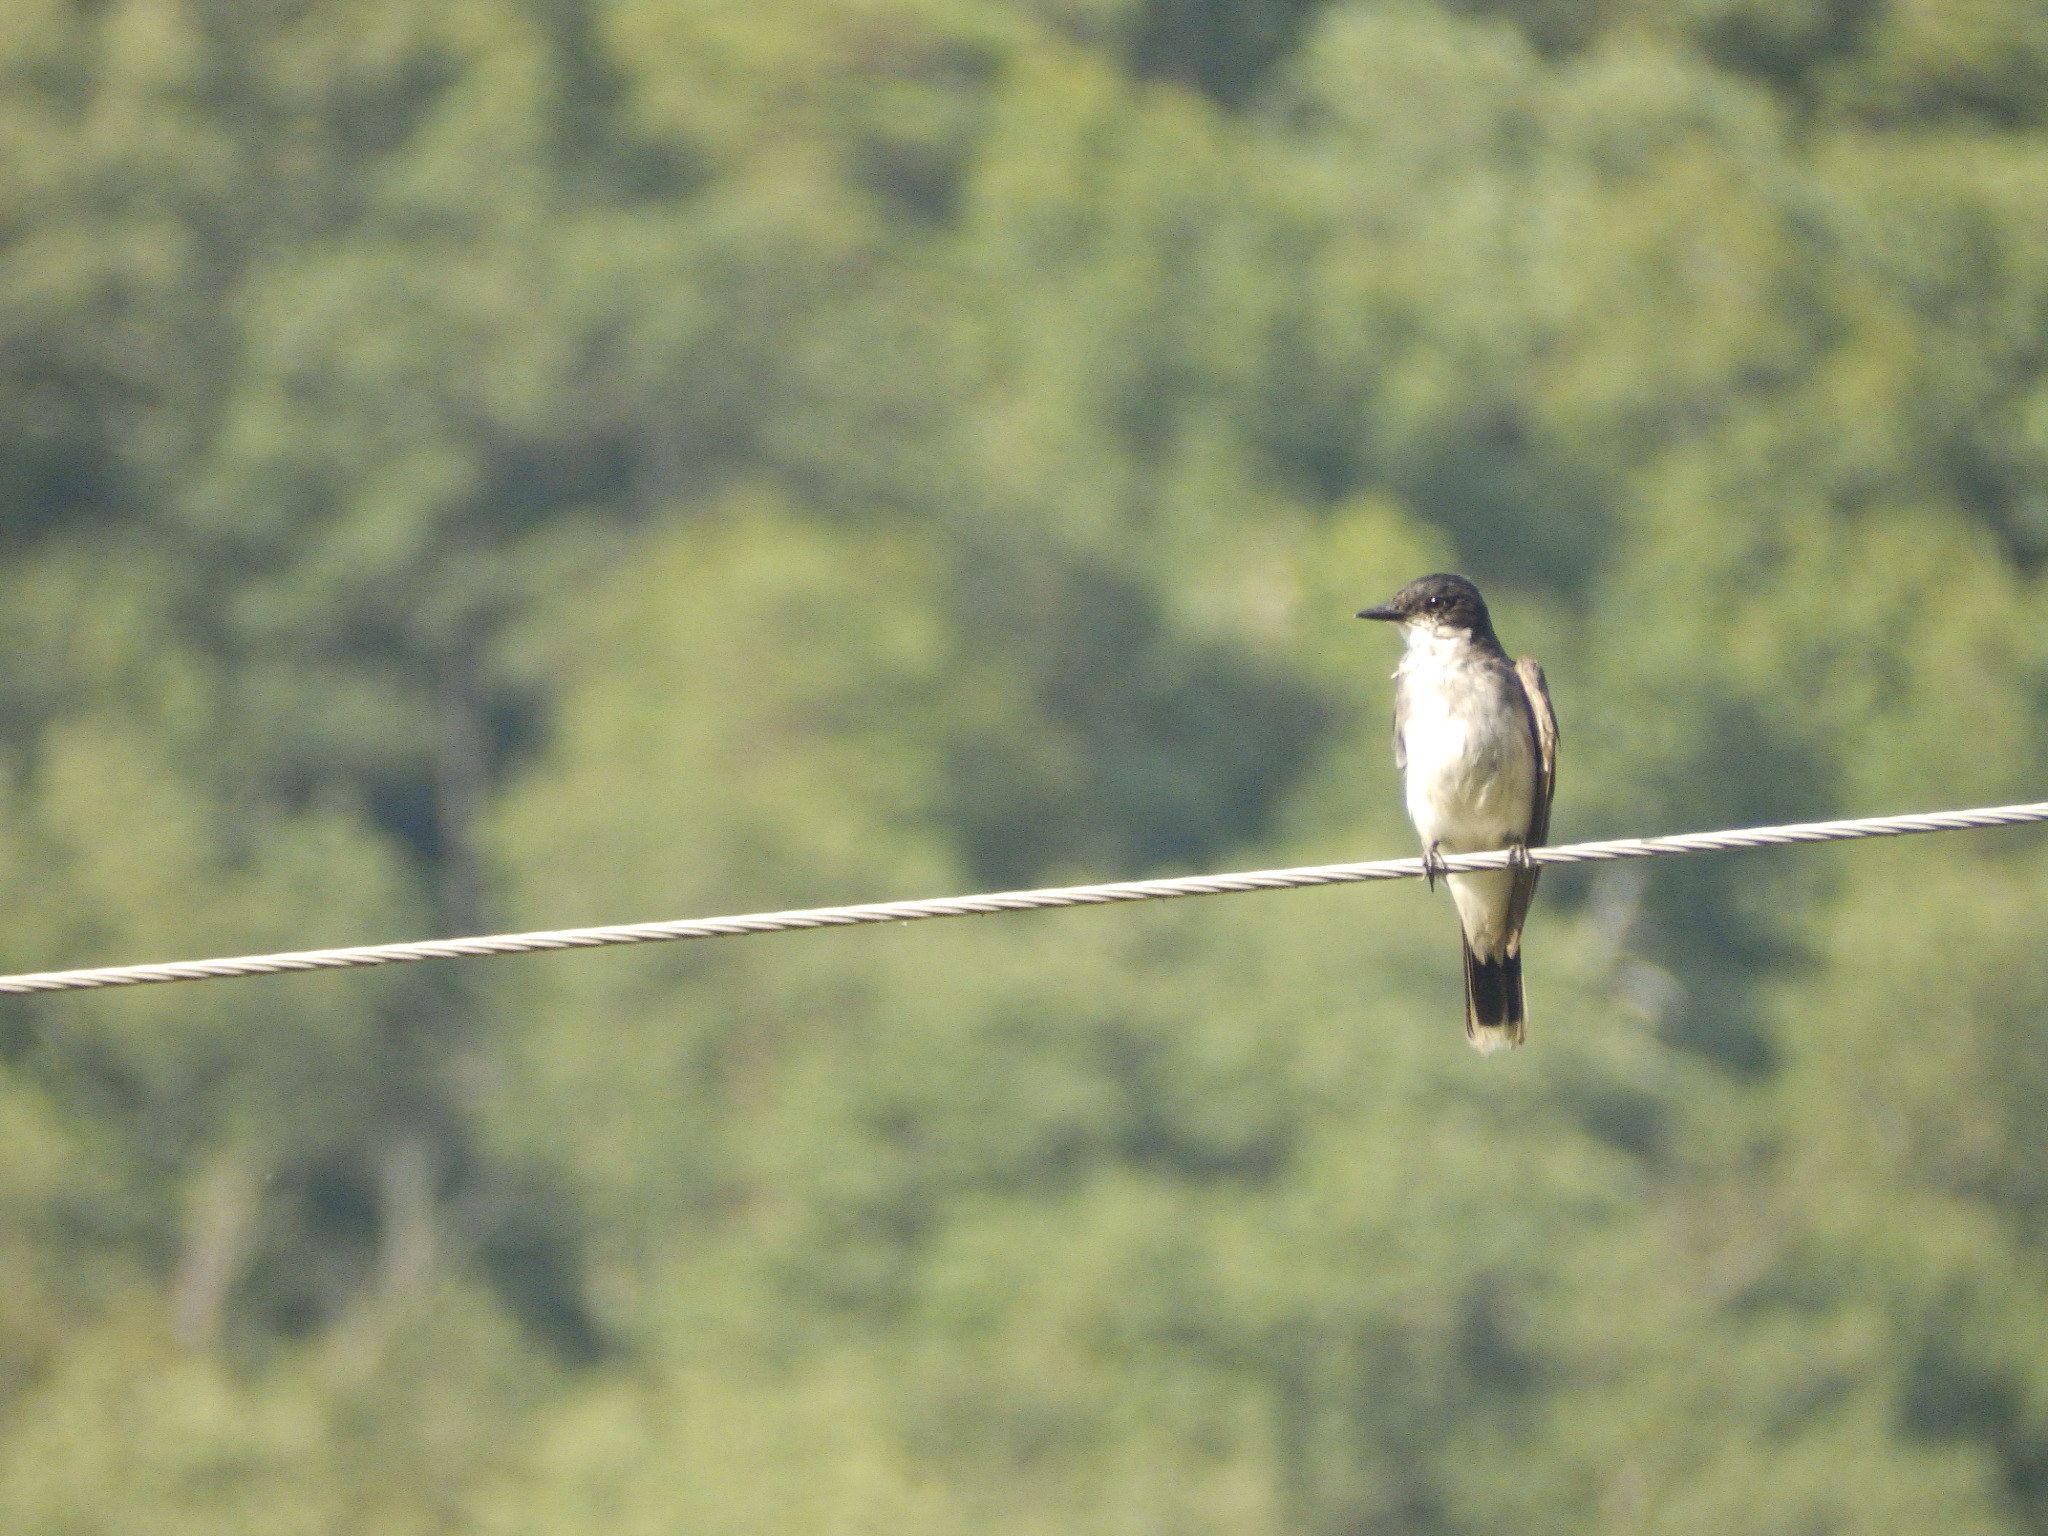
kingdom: Animalia
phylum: Chordata
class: Aves
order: Passeriformes
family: Tyrannidae
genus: Tyrannus
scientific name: Tyrannus tyrannus
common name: Eastern kingbird
